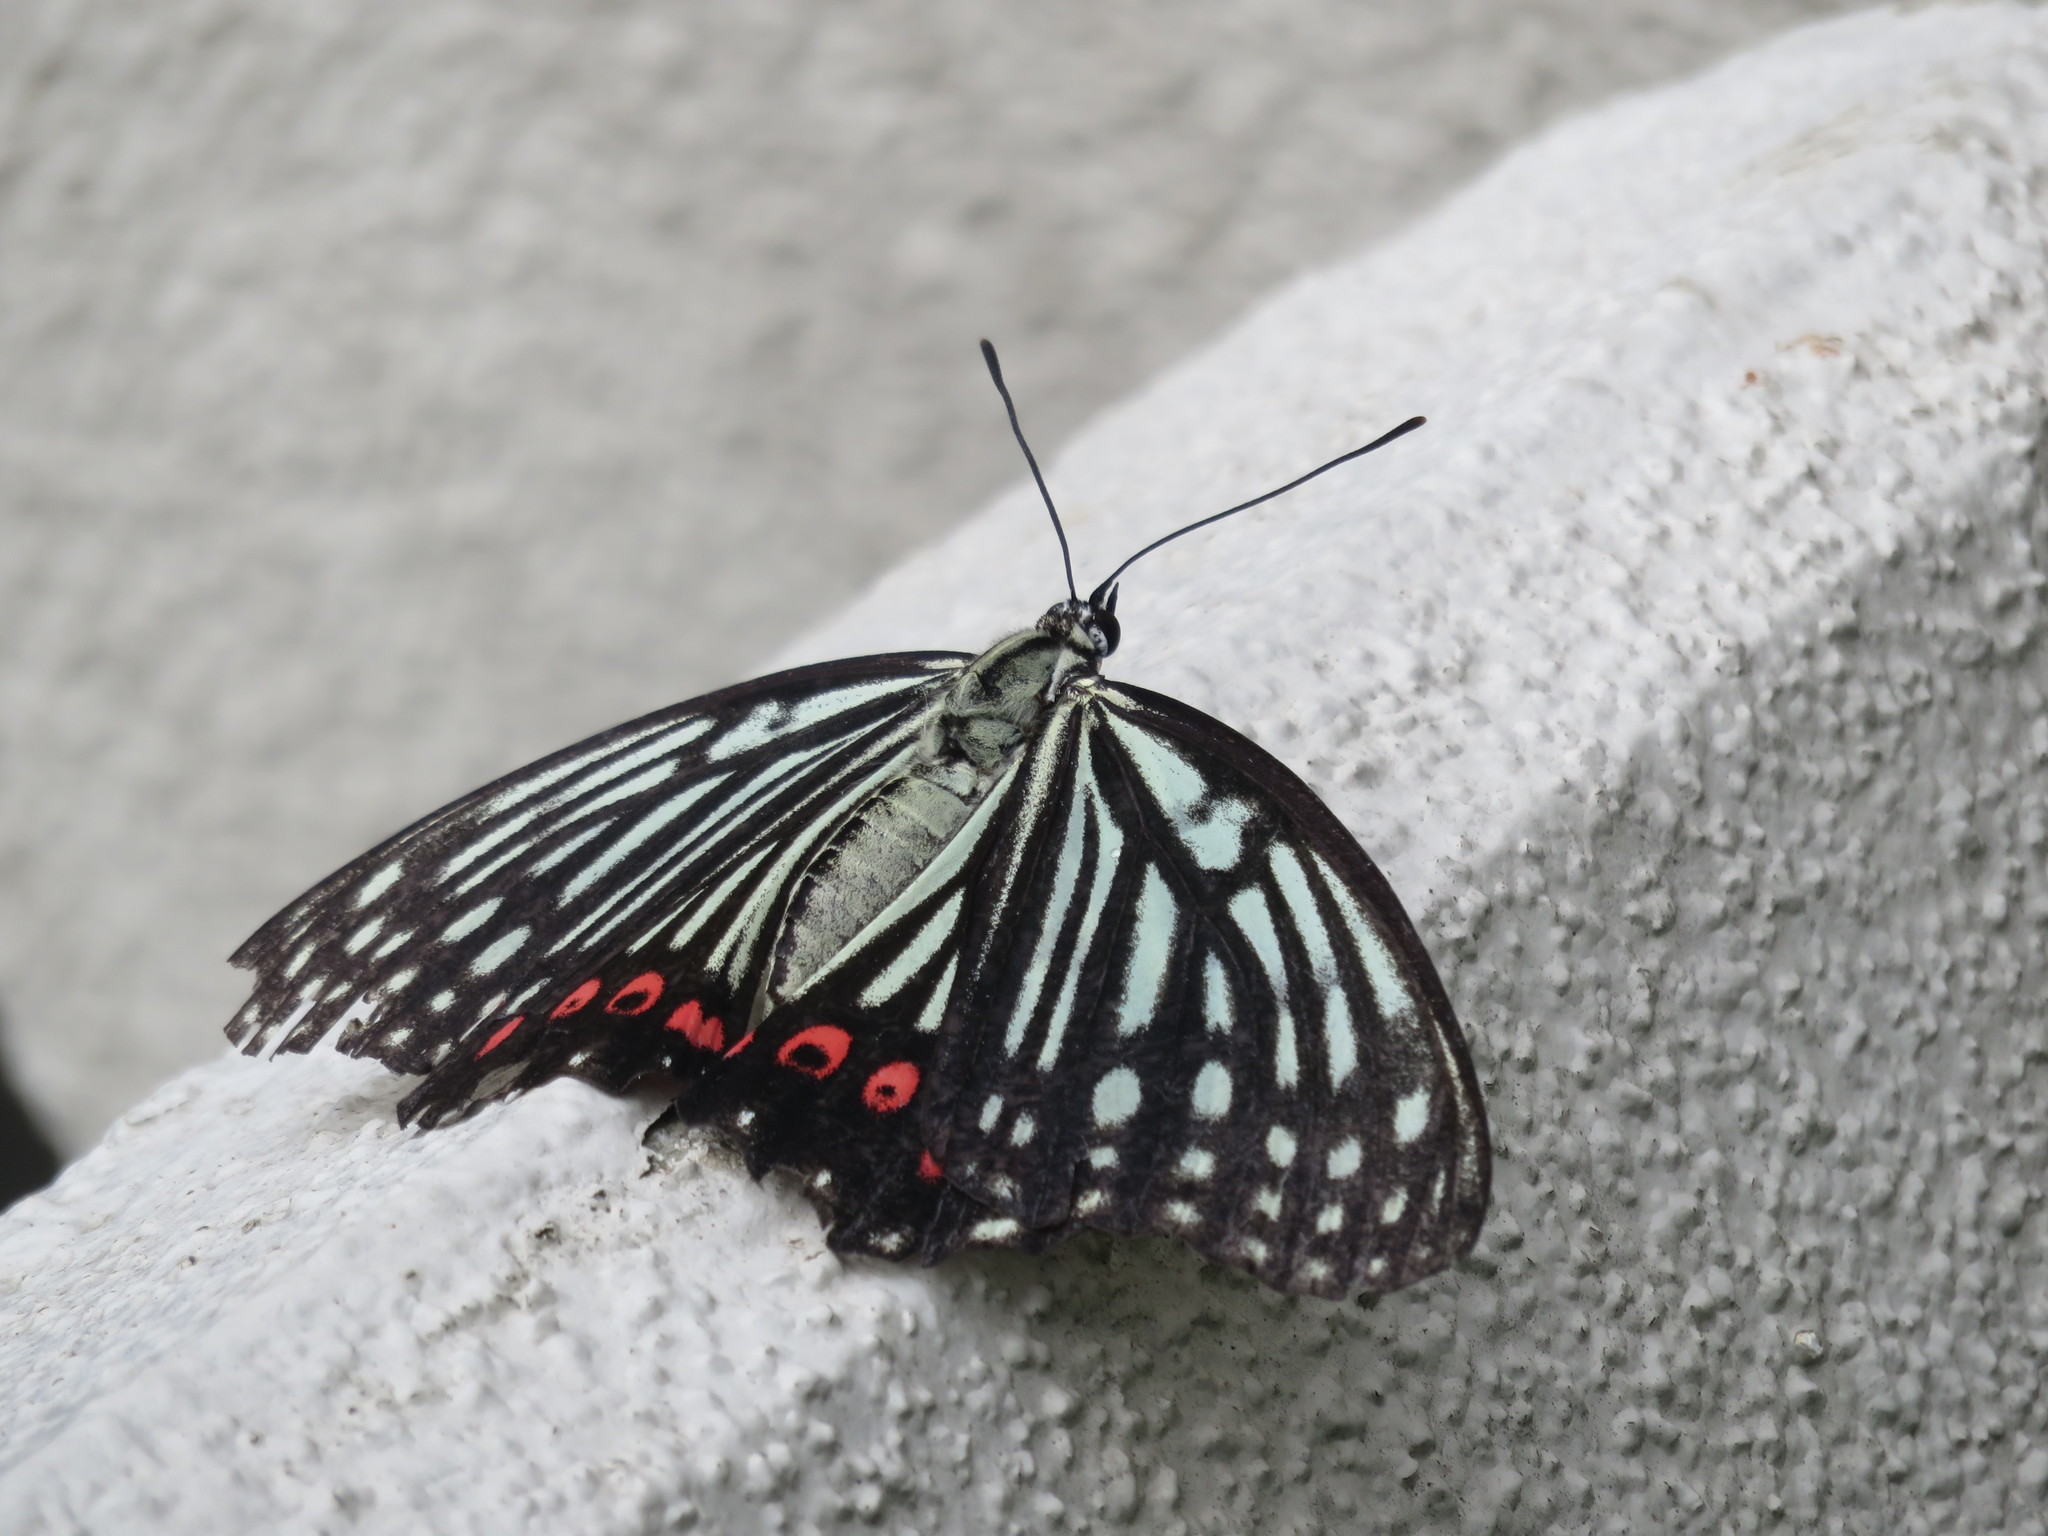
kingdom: Animalia
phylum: Arthropoda
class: Insecta
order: Lepidoptera
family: Nymphalidae
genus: Hestina
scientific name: Hestina assimilis
